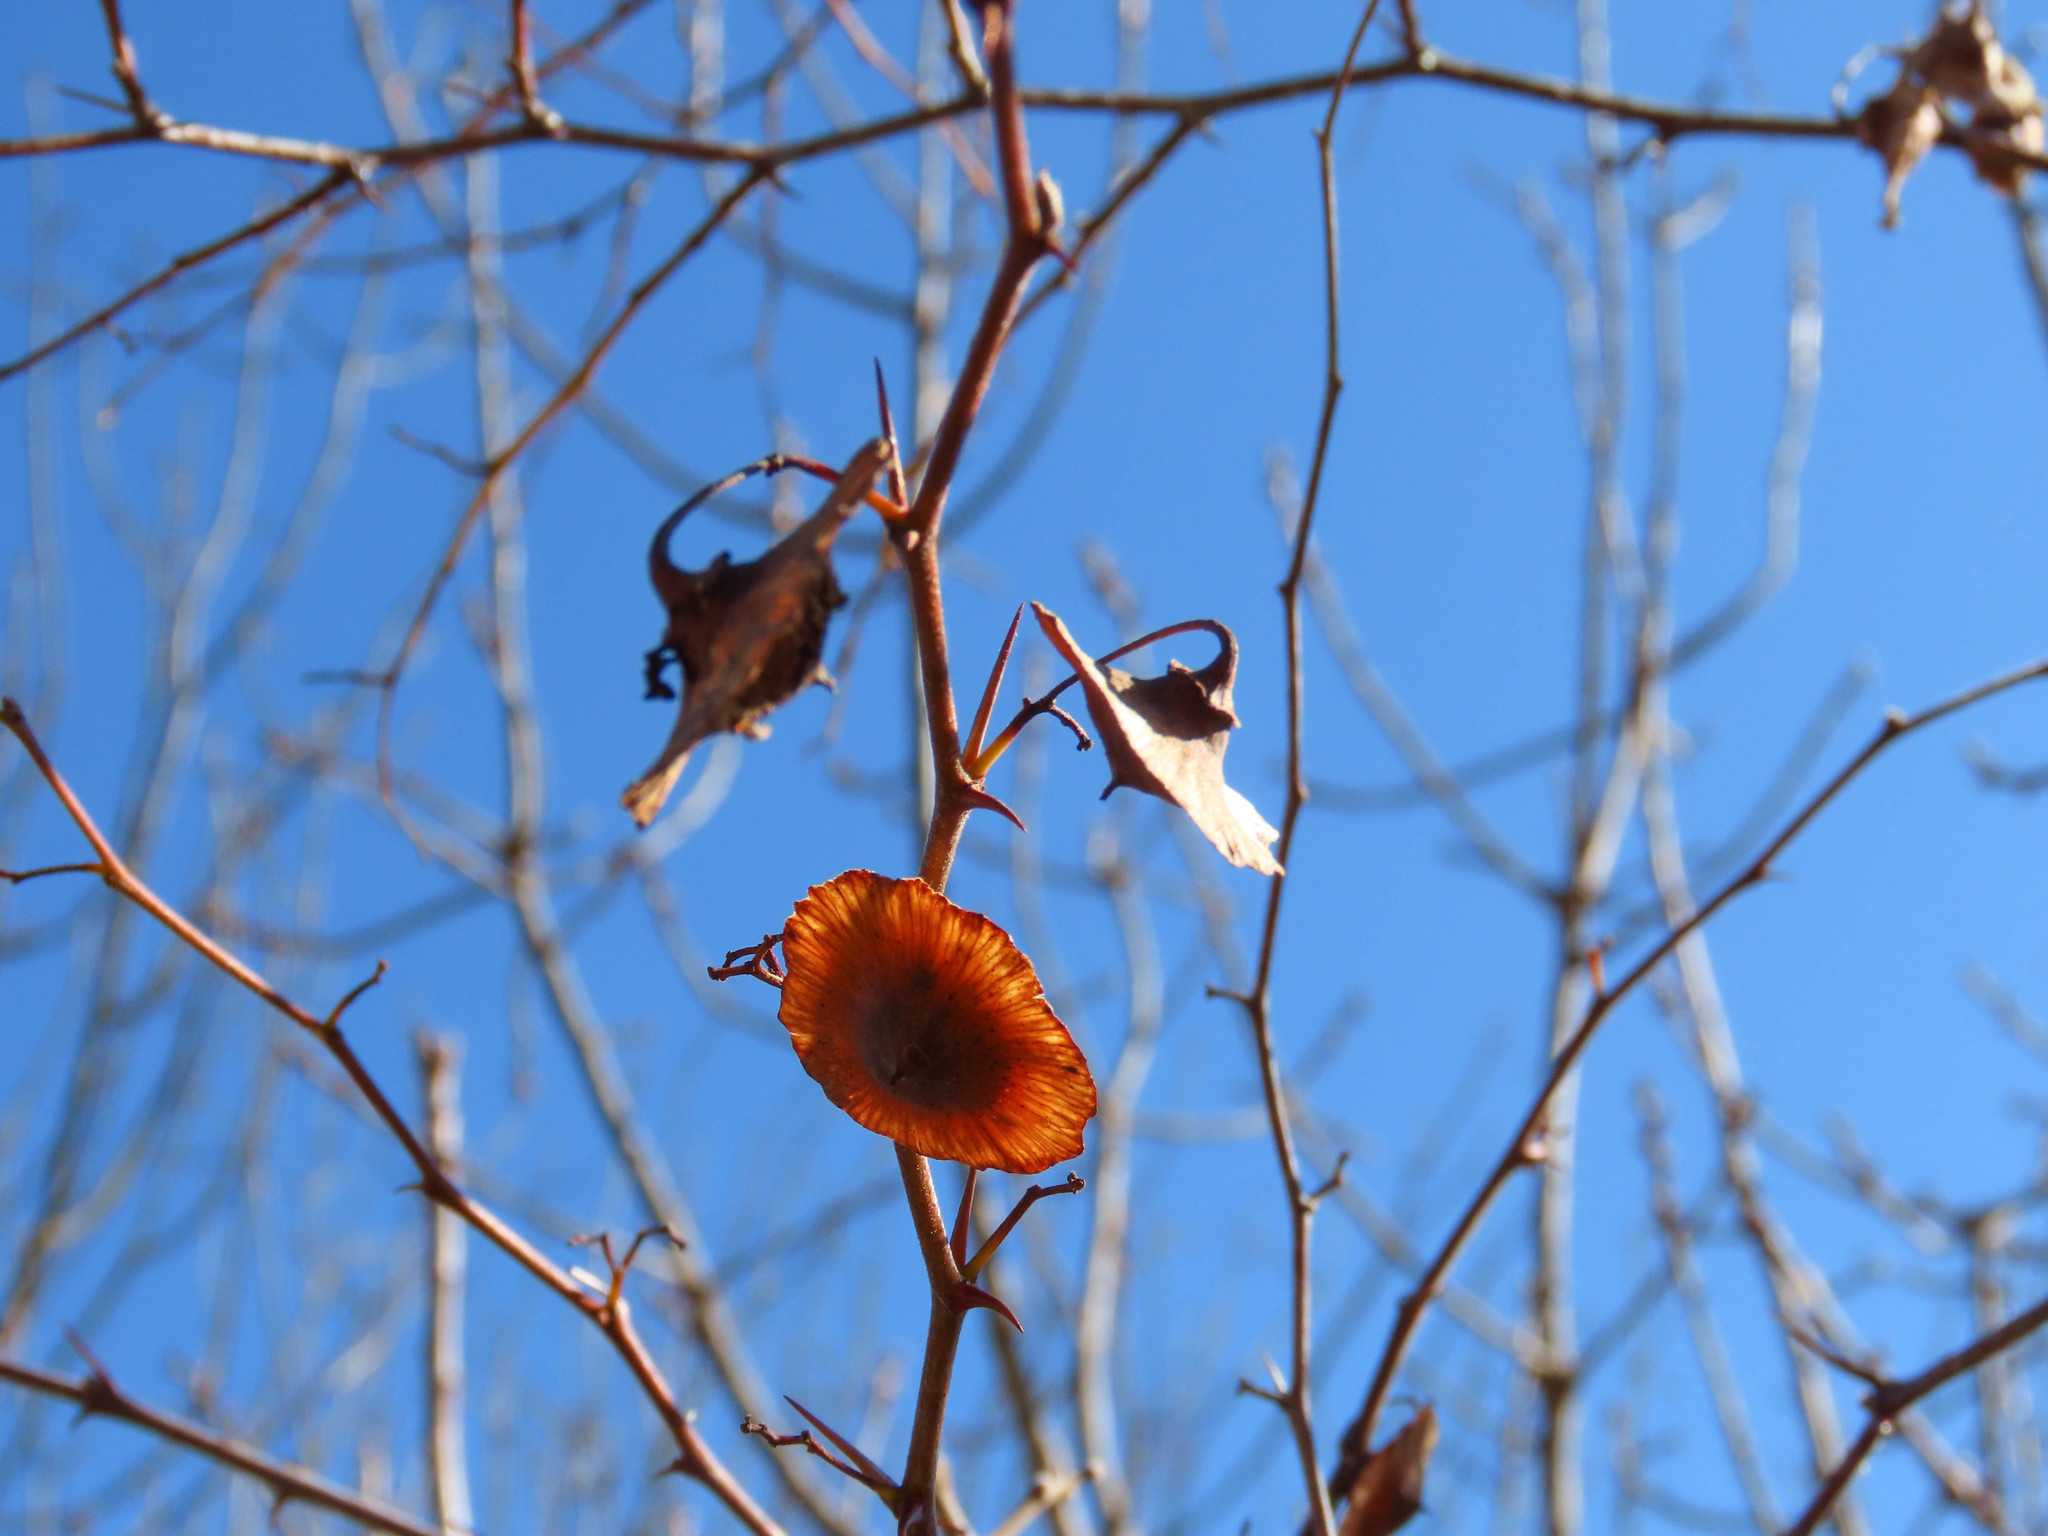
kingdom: Plantae
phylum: Tracheophyta
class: Magnoliopsida
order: Rosales
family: Rhamnaceae
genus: Paliurus
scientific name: Paliurus spina-christi
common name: Jeruselem thorn
